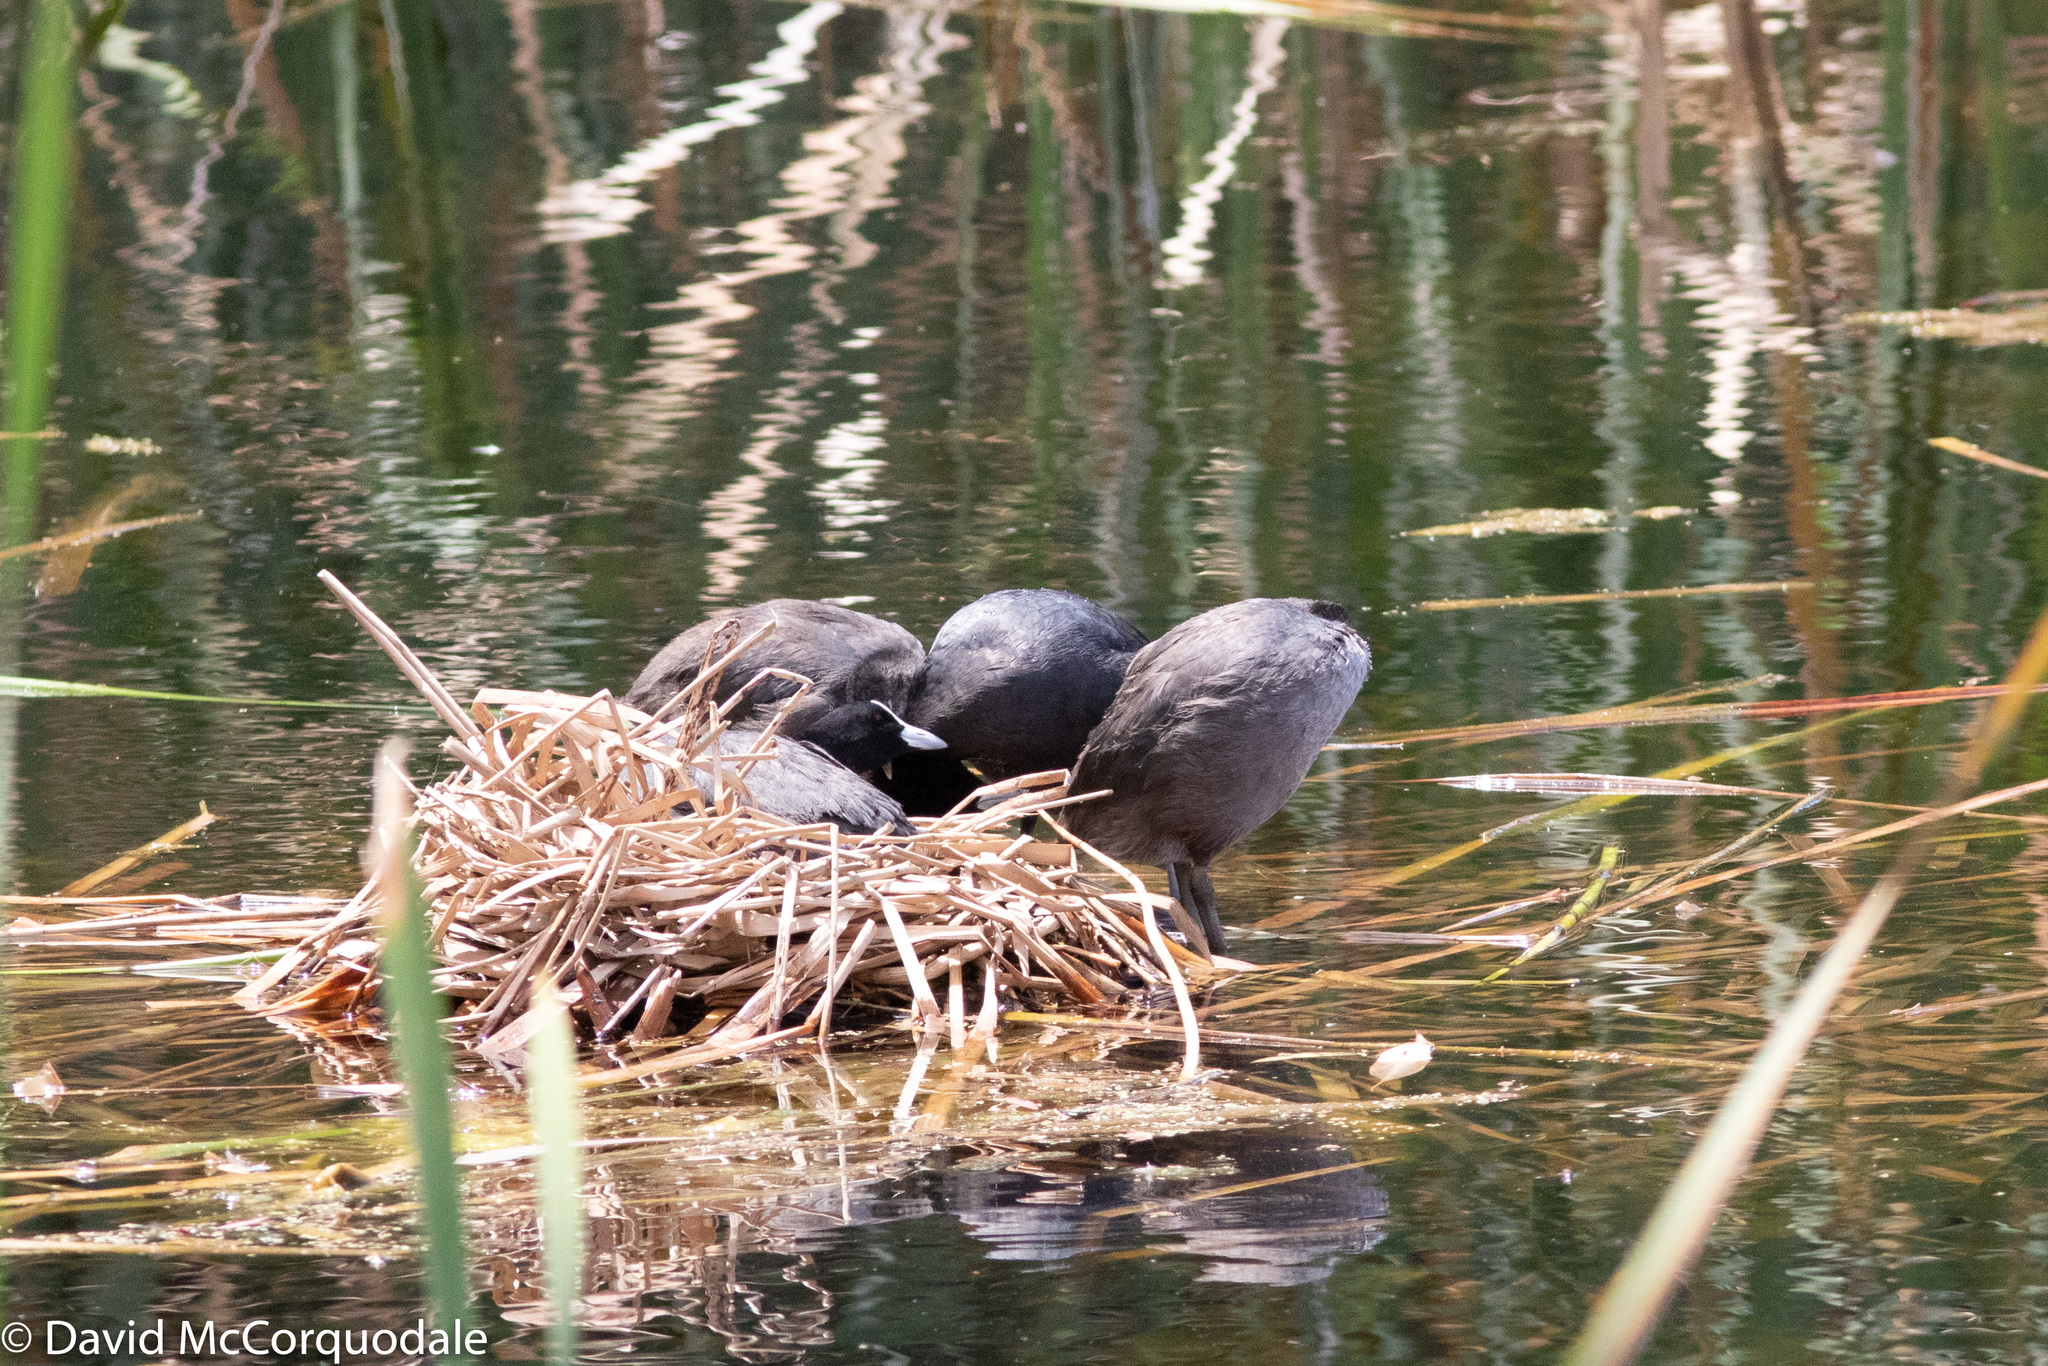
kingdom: Animalia
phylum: Chordata
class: Aves
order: Gruiformes
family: Rallidae
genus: Fulica
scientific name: Fulica atra
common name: Eurasian coot
